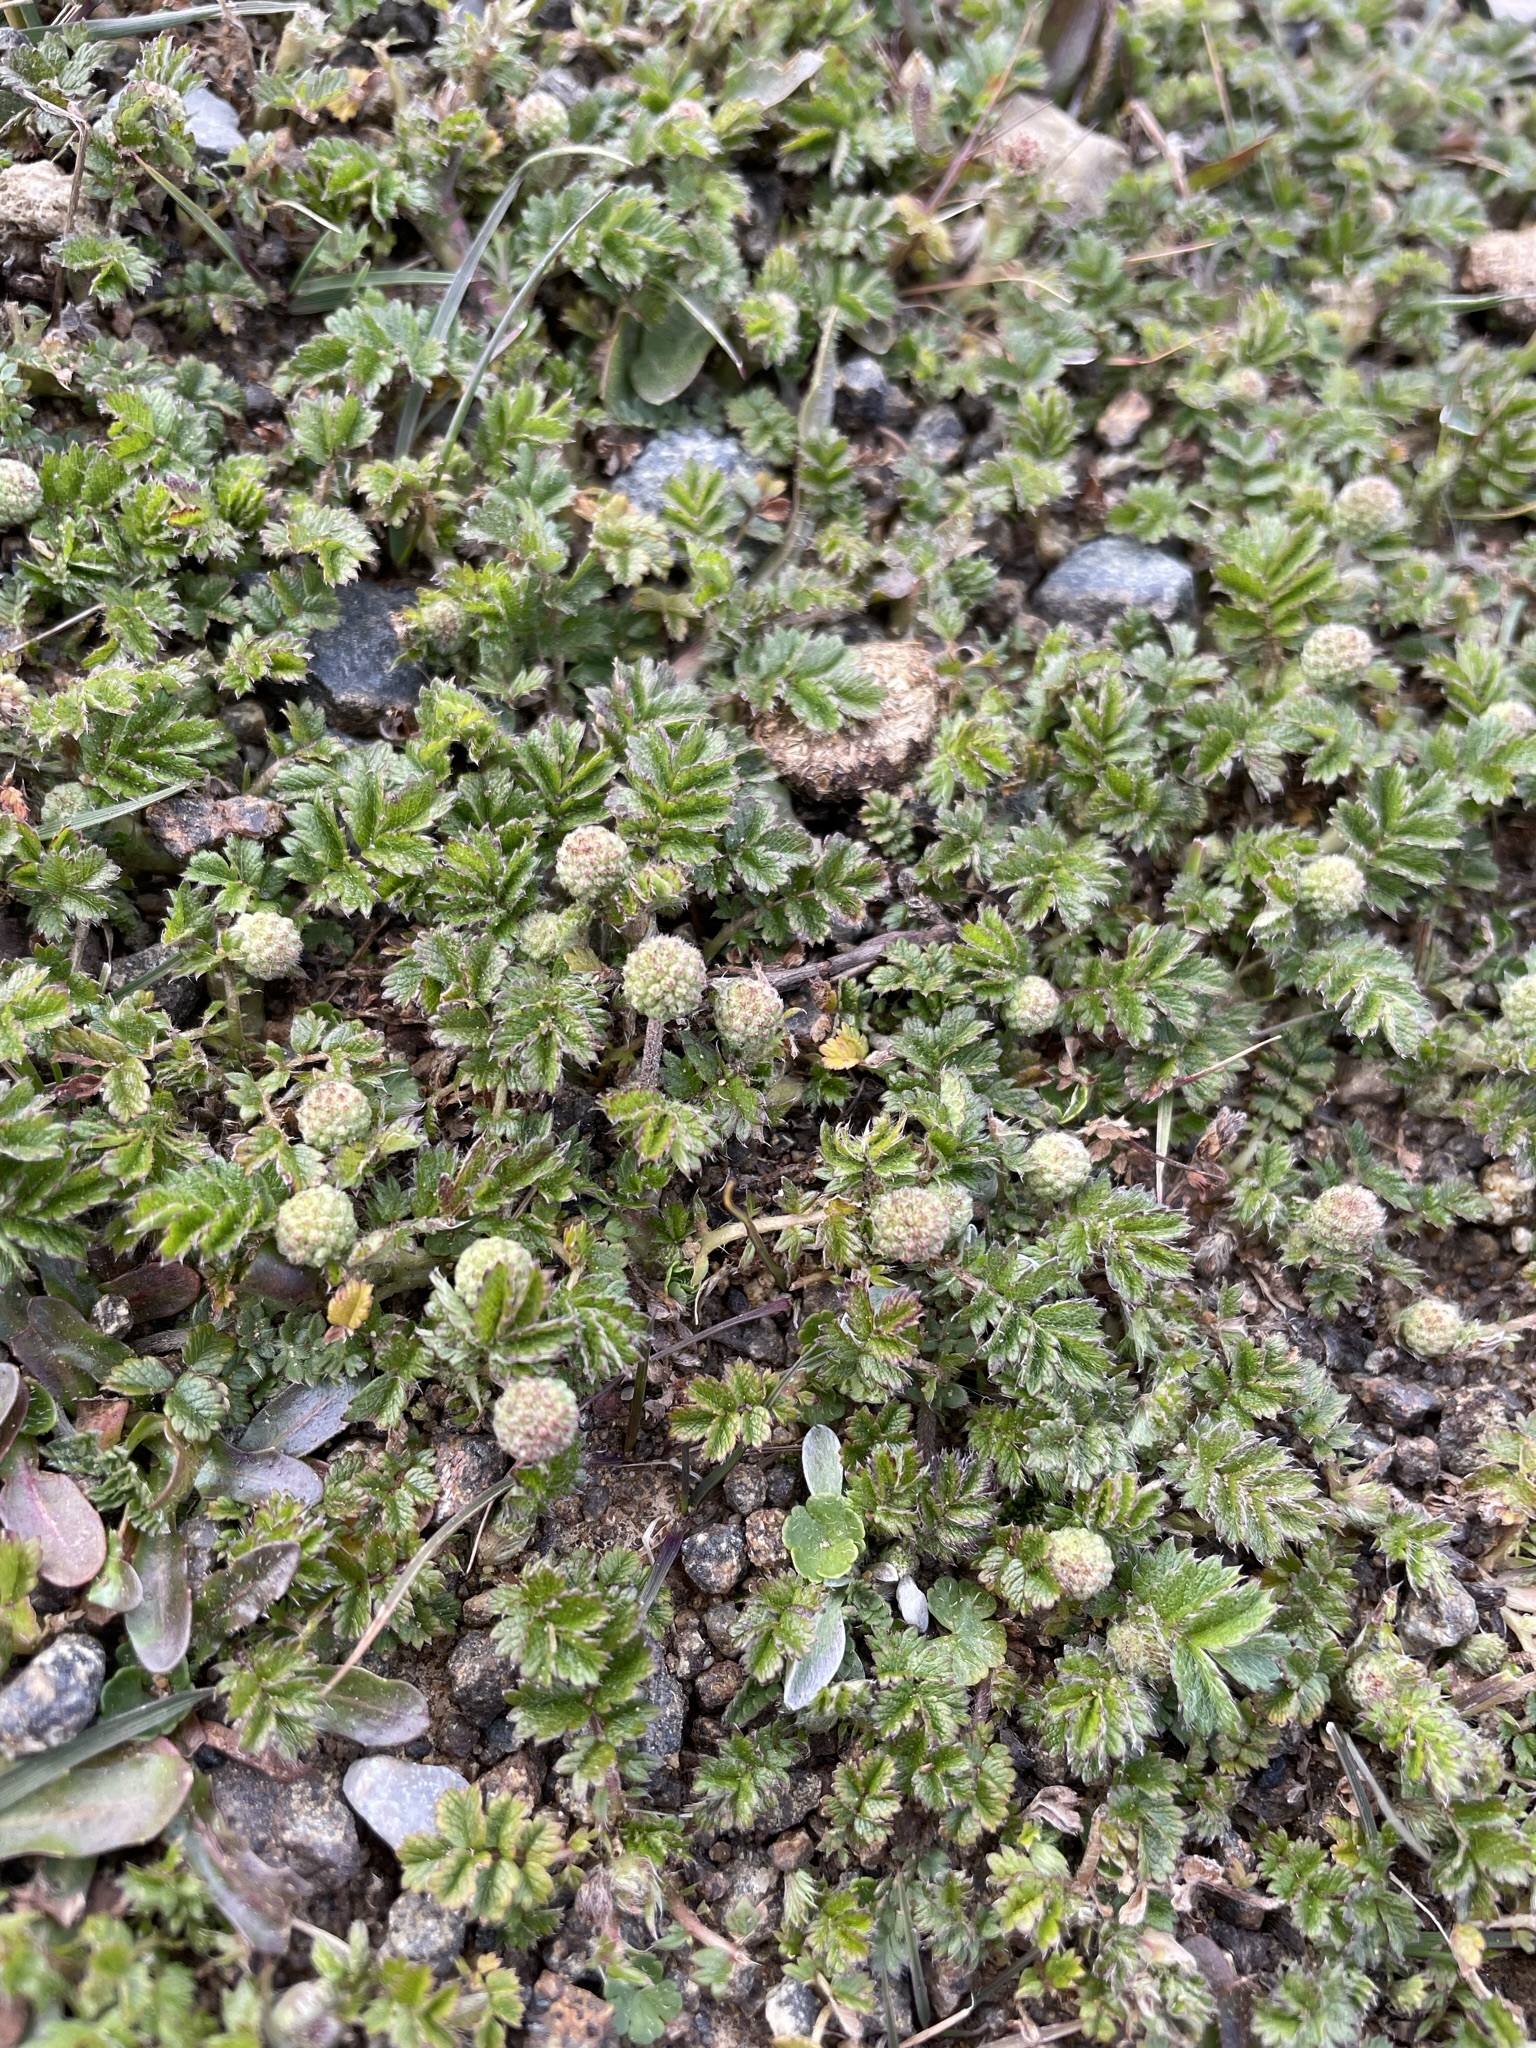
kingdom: Plantae
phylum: Tracheophyta
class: Magnoliopsida
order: Rosales
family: Rosaceae
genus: Acaena
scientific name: Acaena montana
